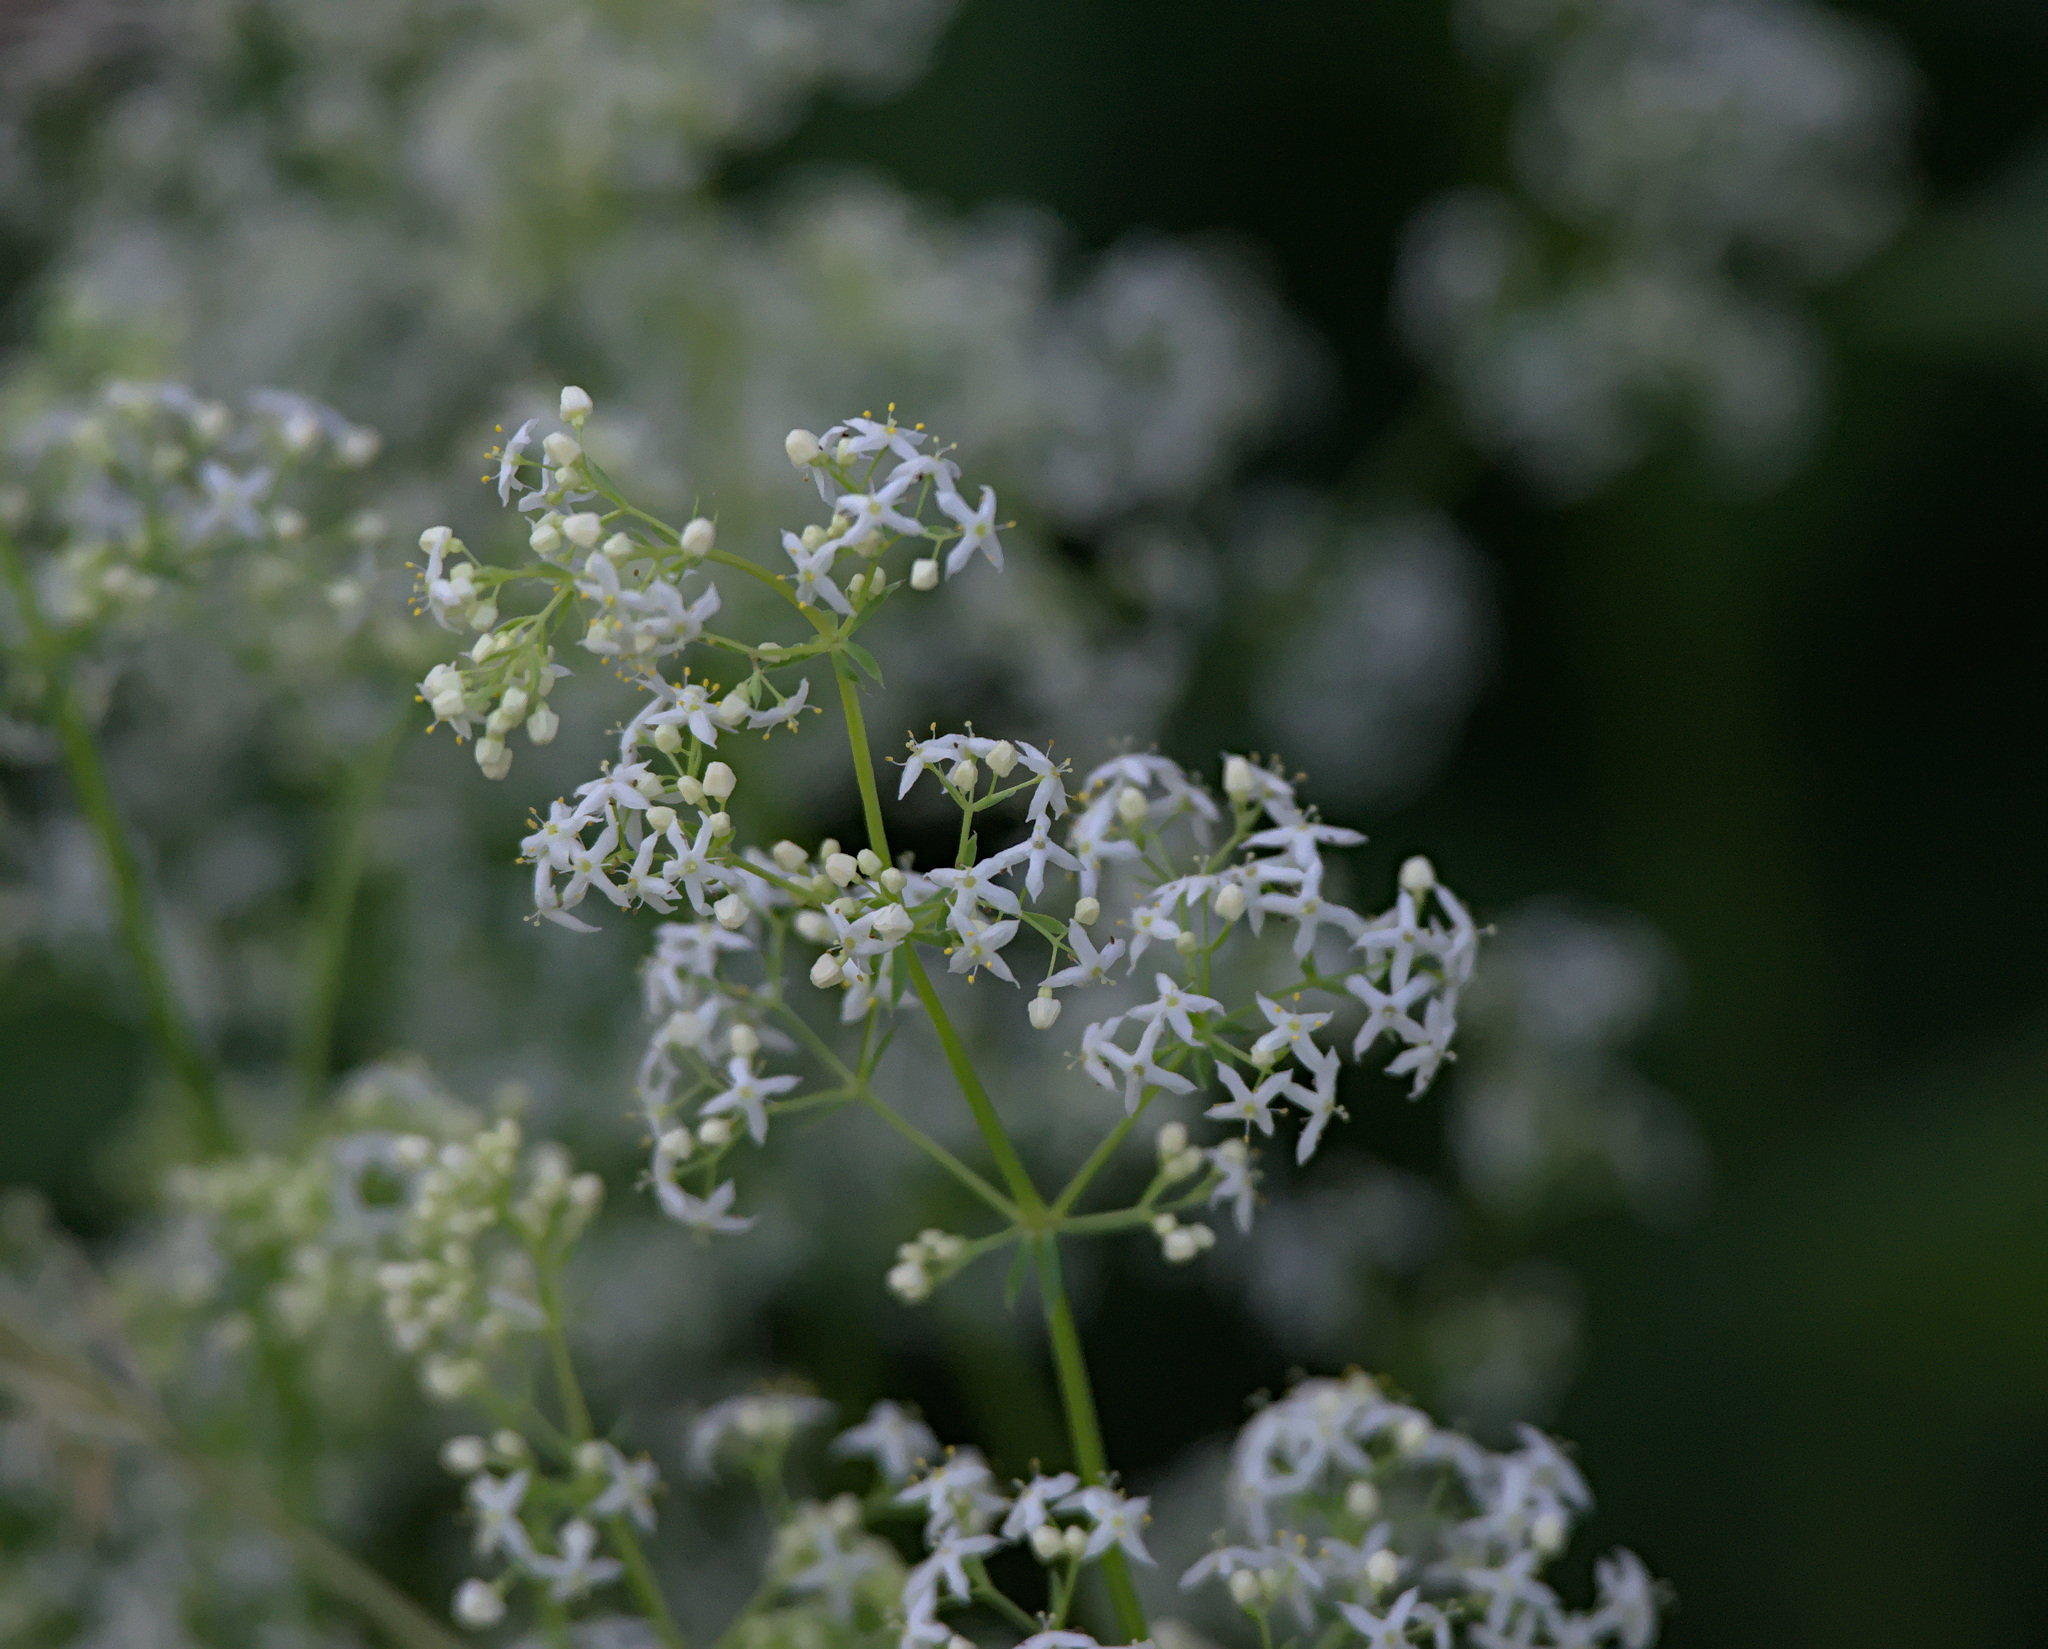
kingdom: Plantae
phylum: Tracheophyta
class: Magnoliopsida
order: Gentianales
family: Rubiaceae
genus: Galium
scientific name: Galium mollugo
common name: Hedge bedstraw
